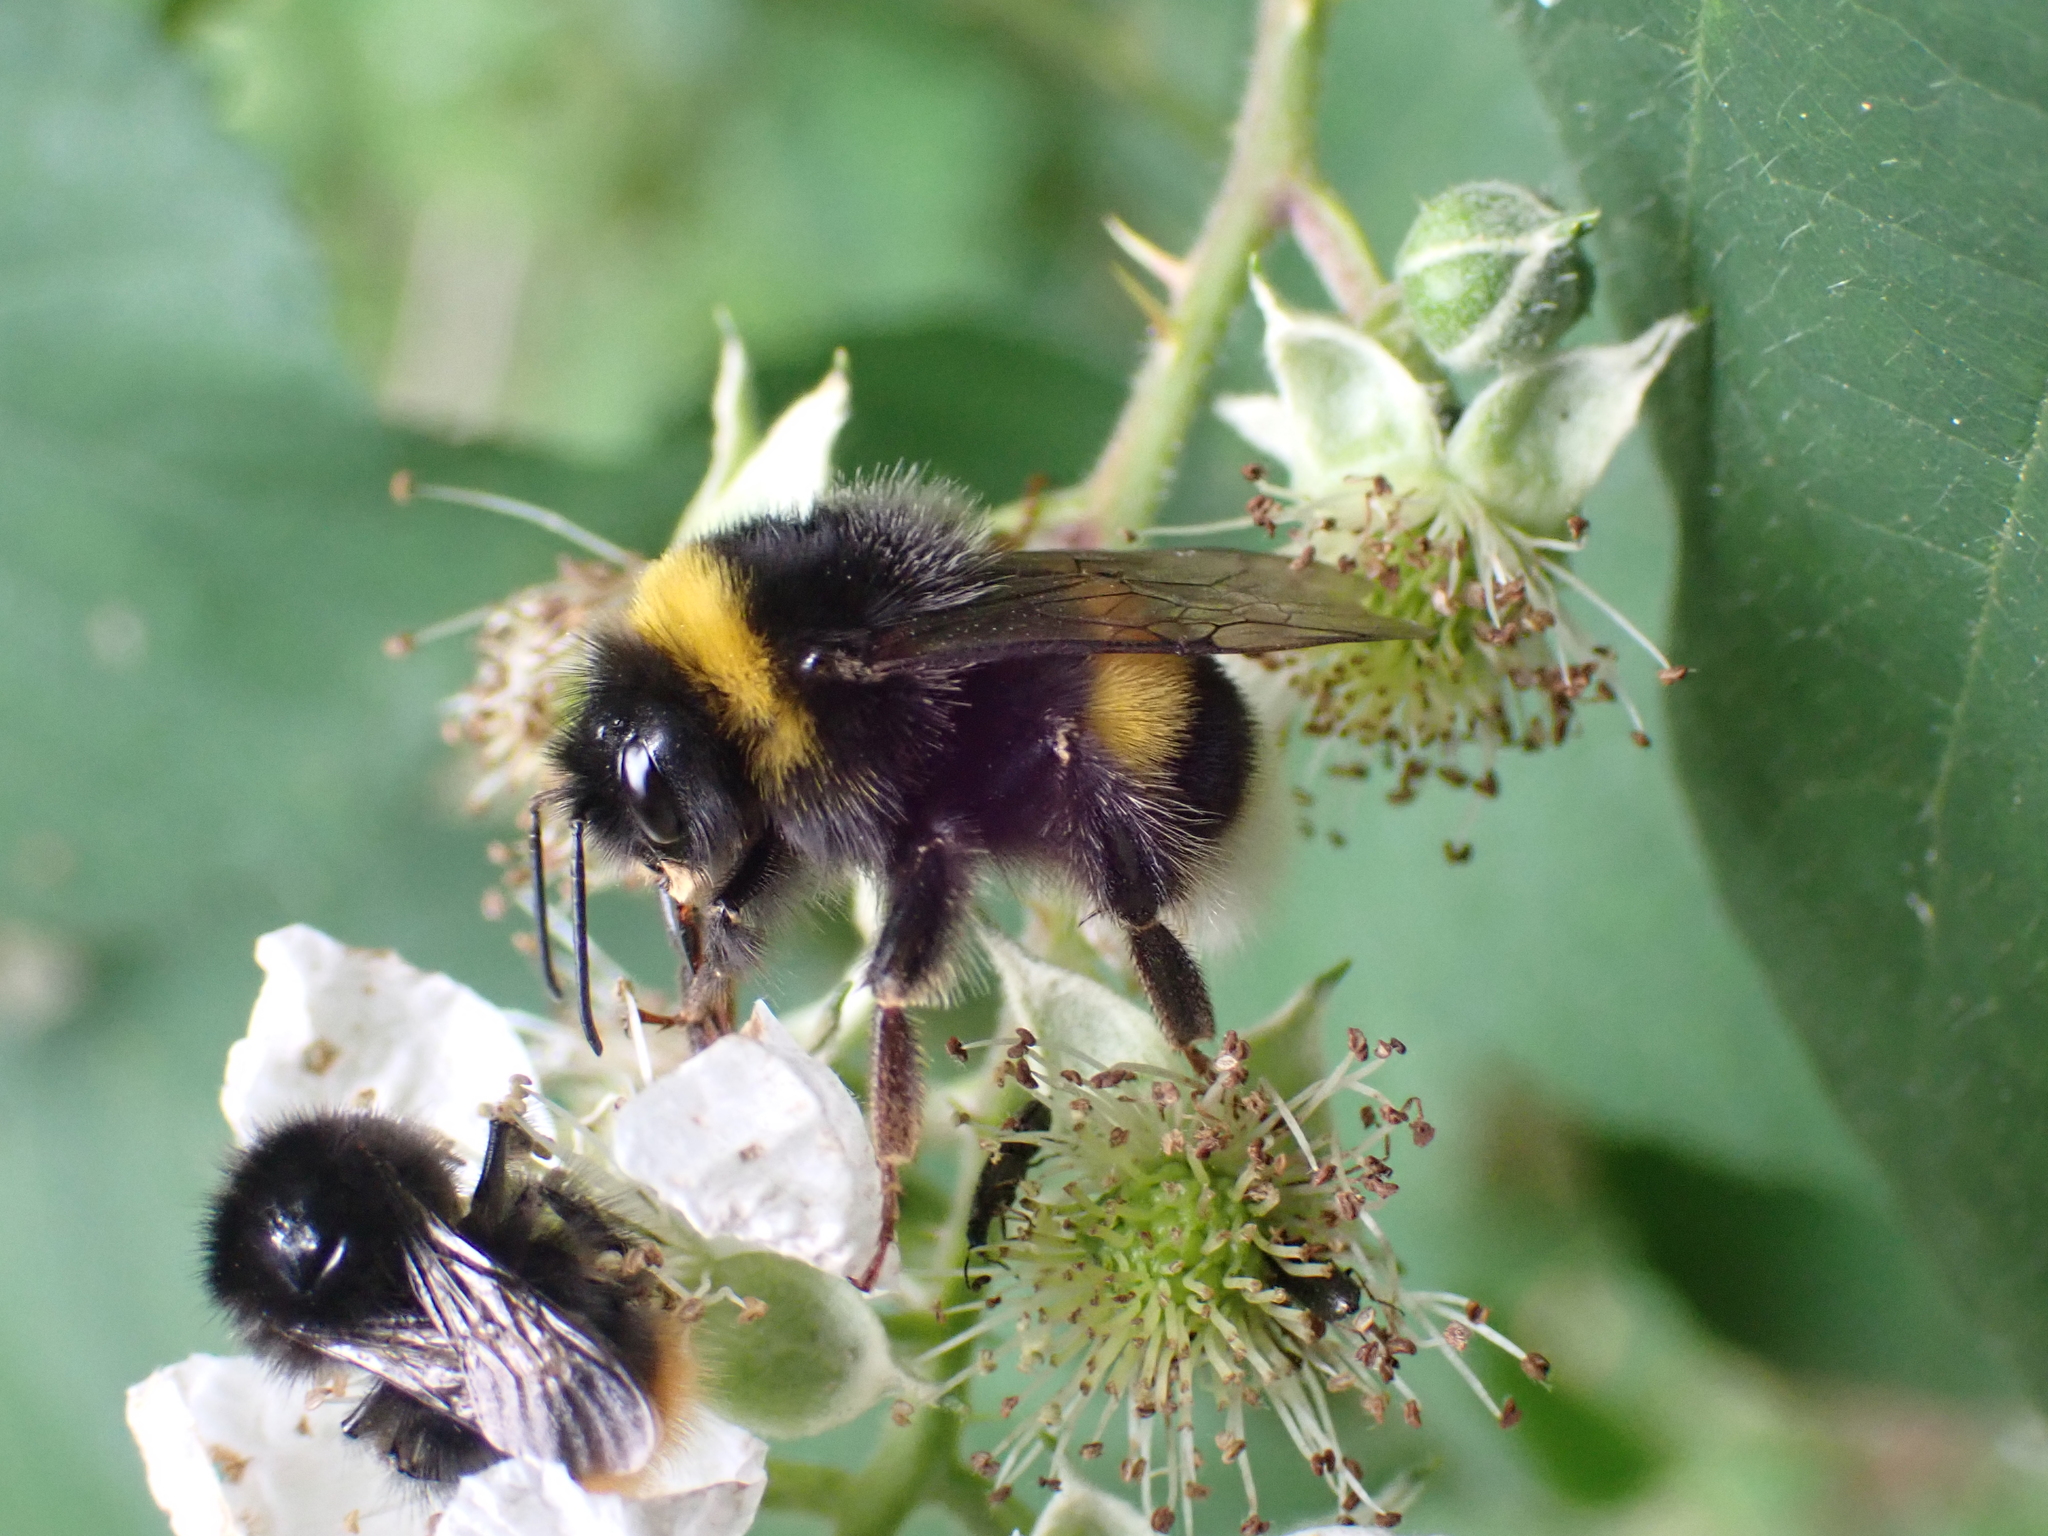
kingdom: Animalia
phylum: Arthropoda
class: Insecta
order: Hymenoptera
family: Apidae
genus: Bombus
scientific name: Bombus terrestris
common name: Buff-tailed bumblebee
